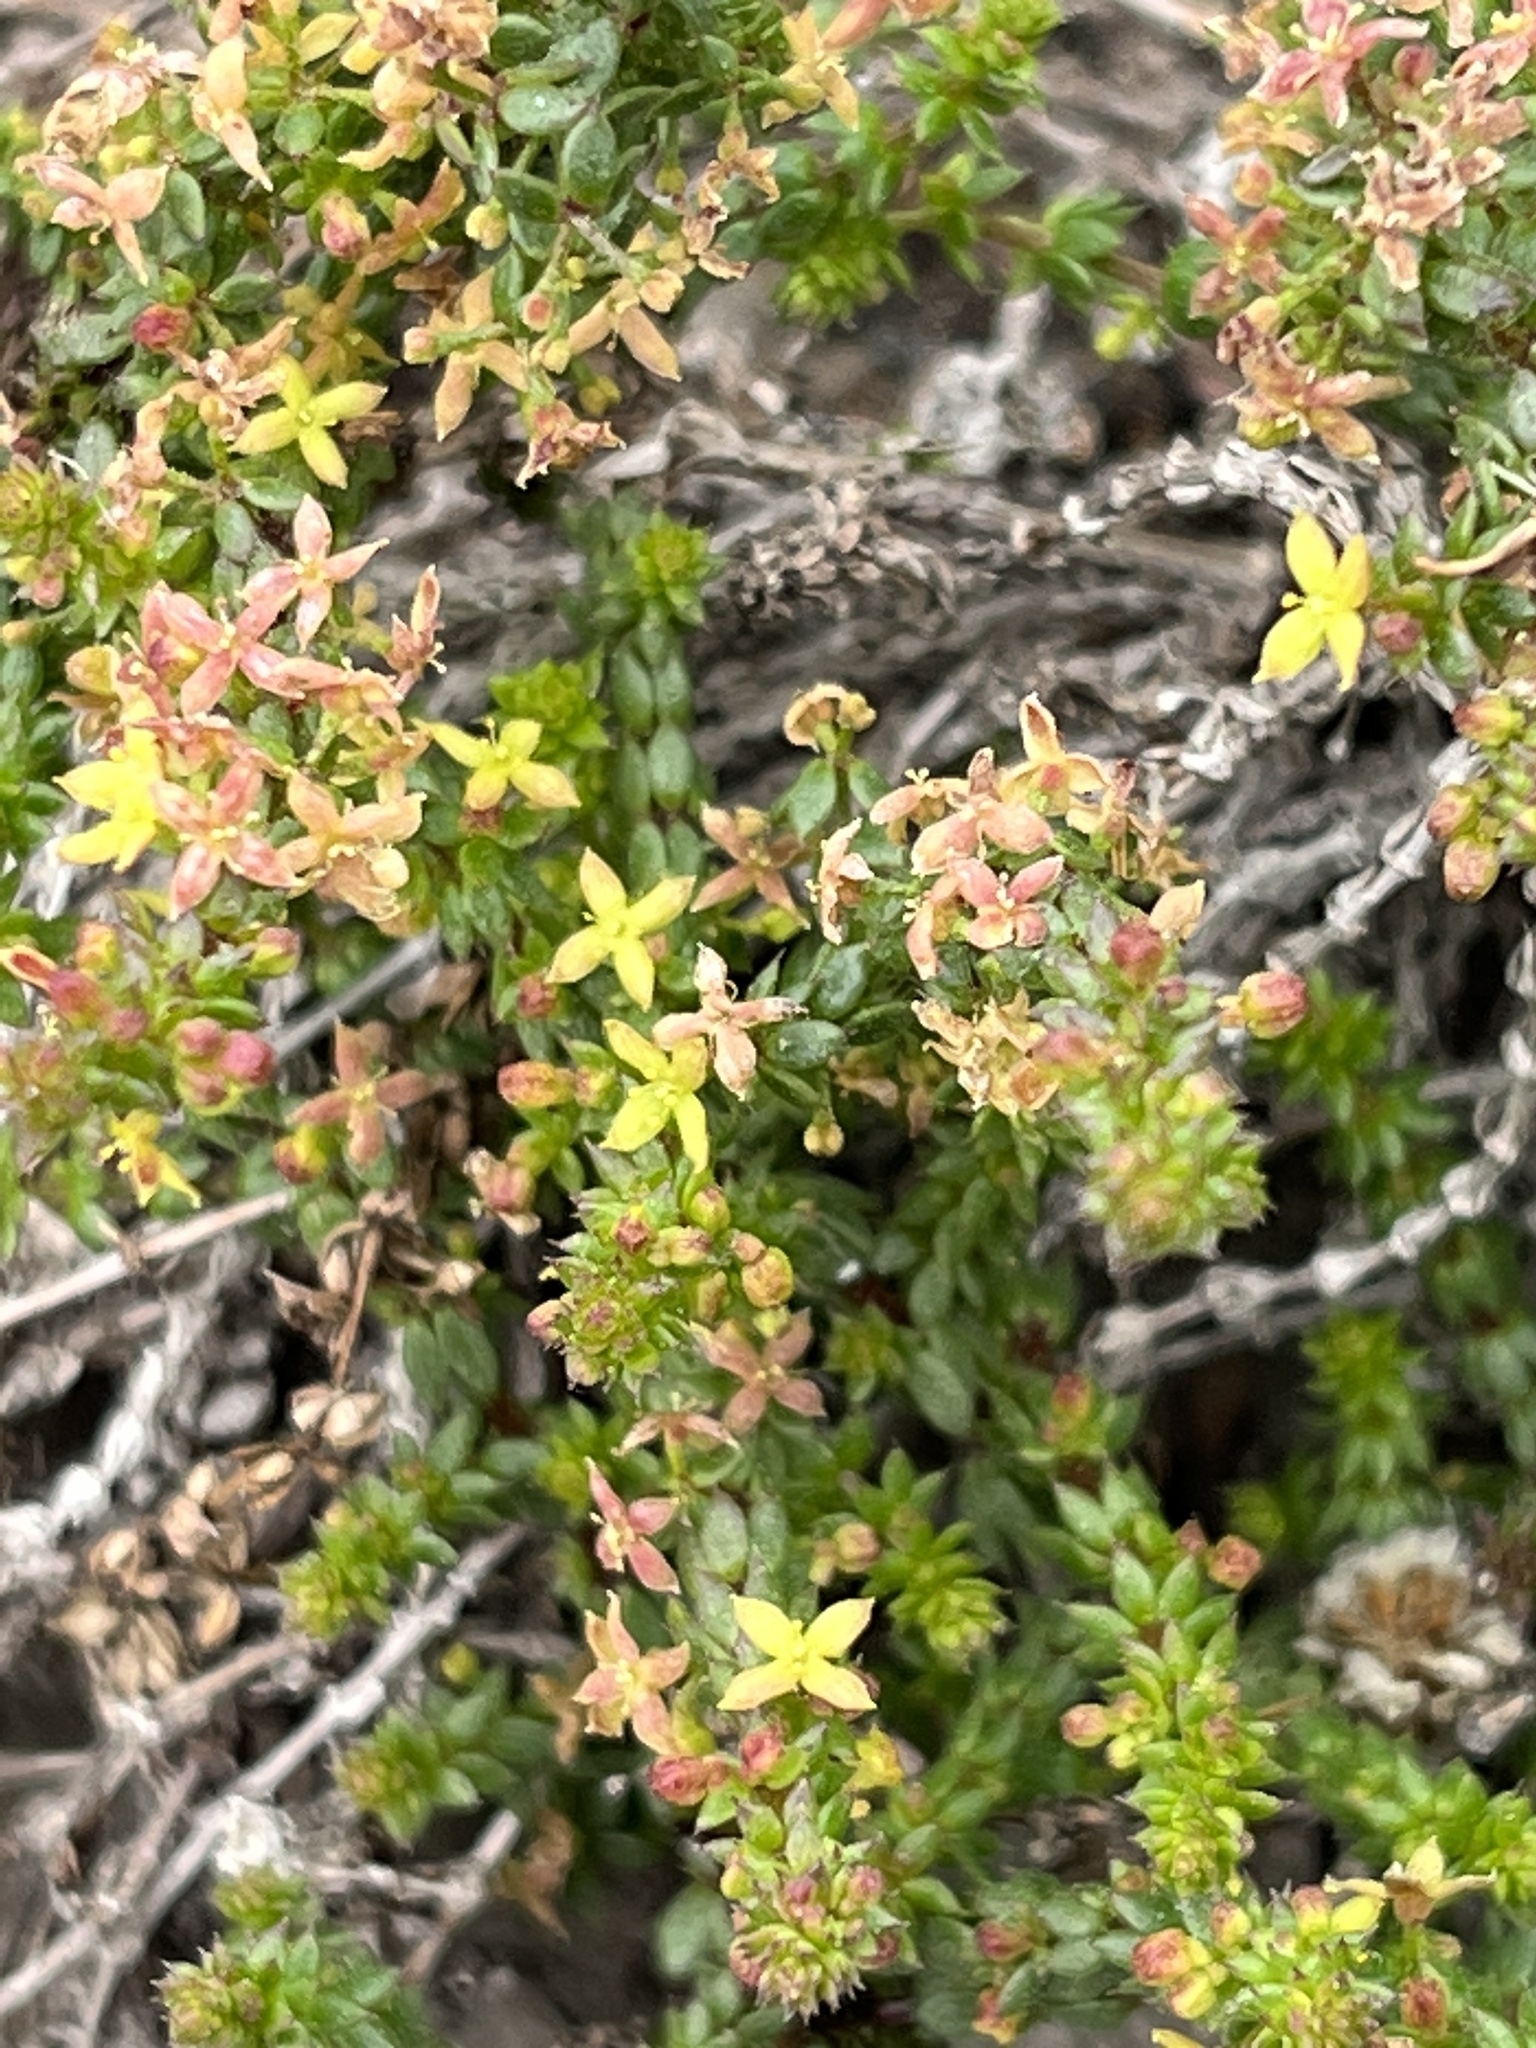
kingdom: Plantae
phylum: Tracheophyta
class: Magnoliopsida
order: Gentianales
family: Rubiaceae
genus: Galium
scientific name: Galium bredasdorpense
